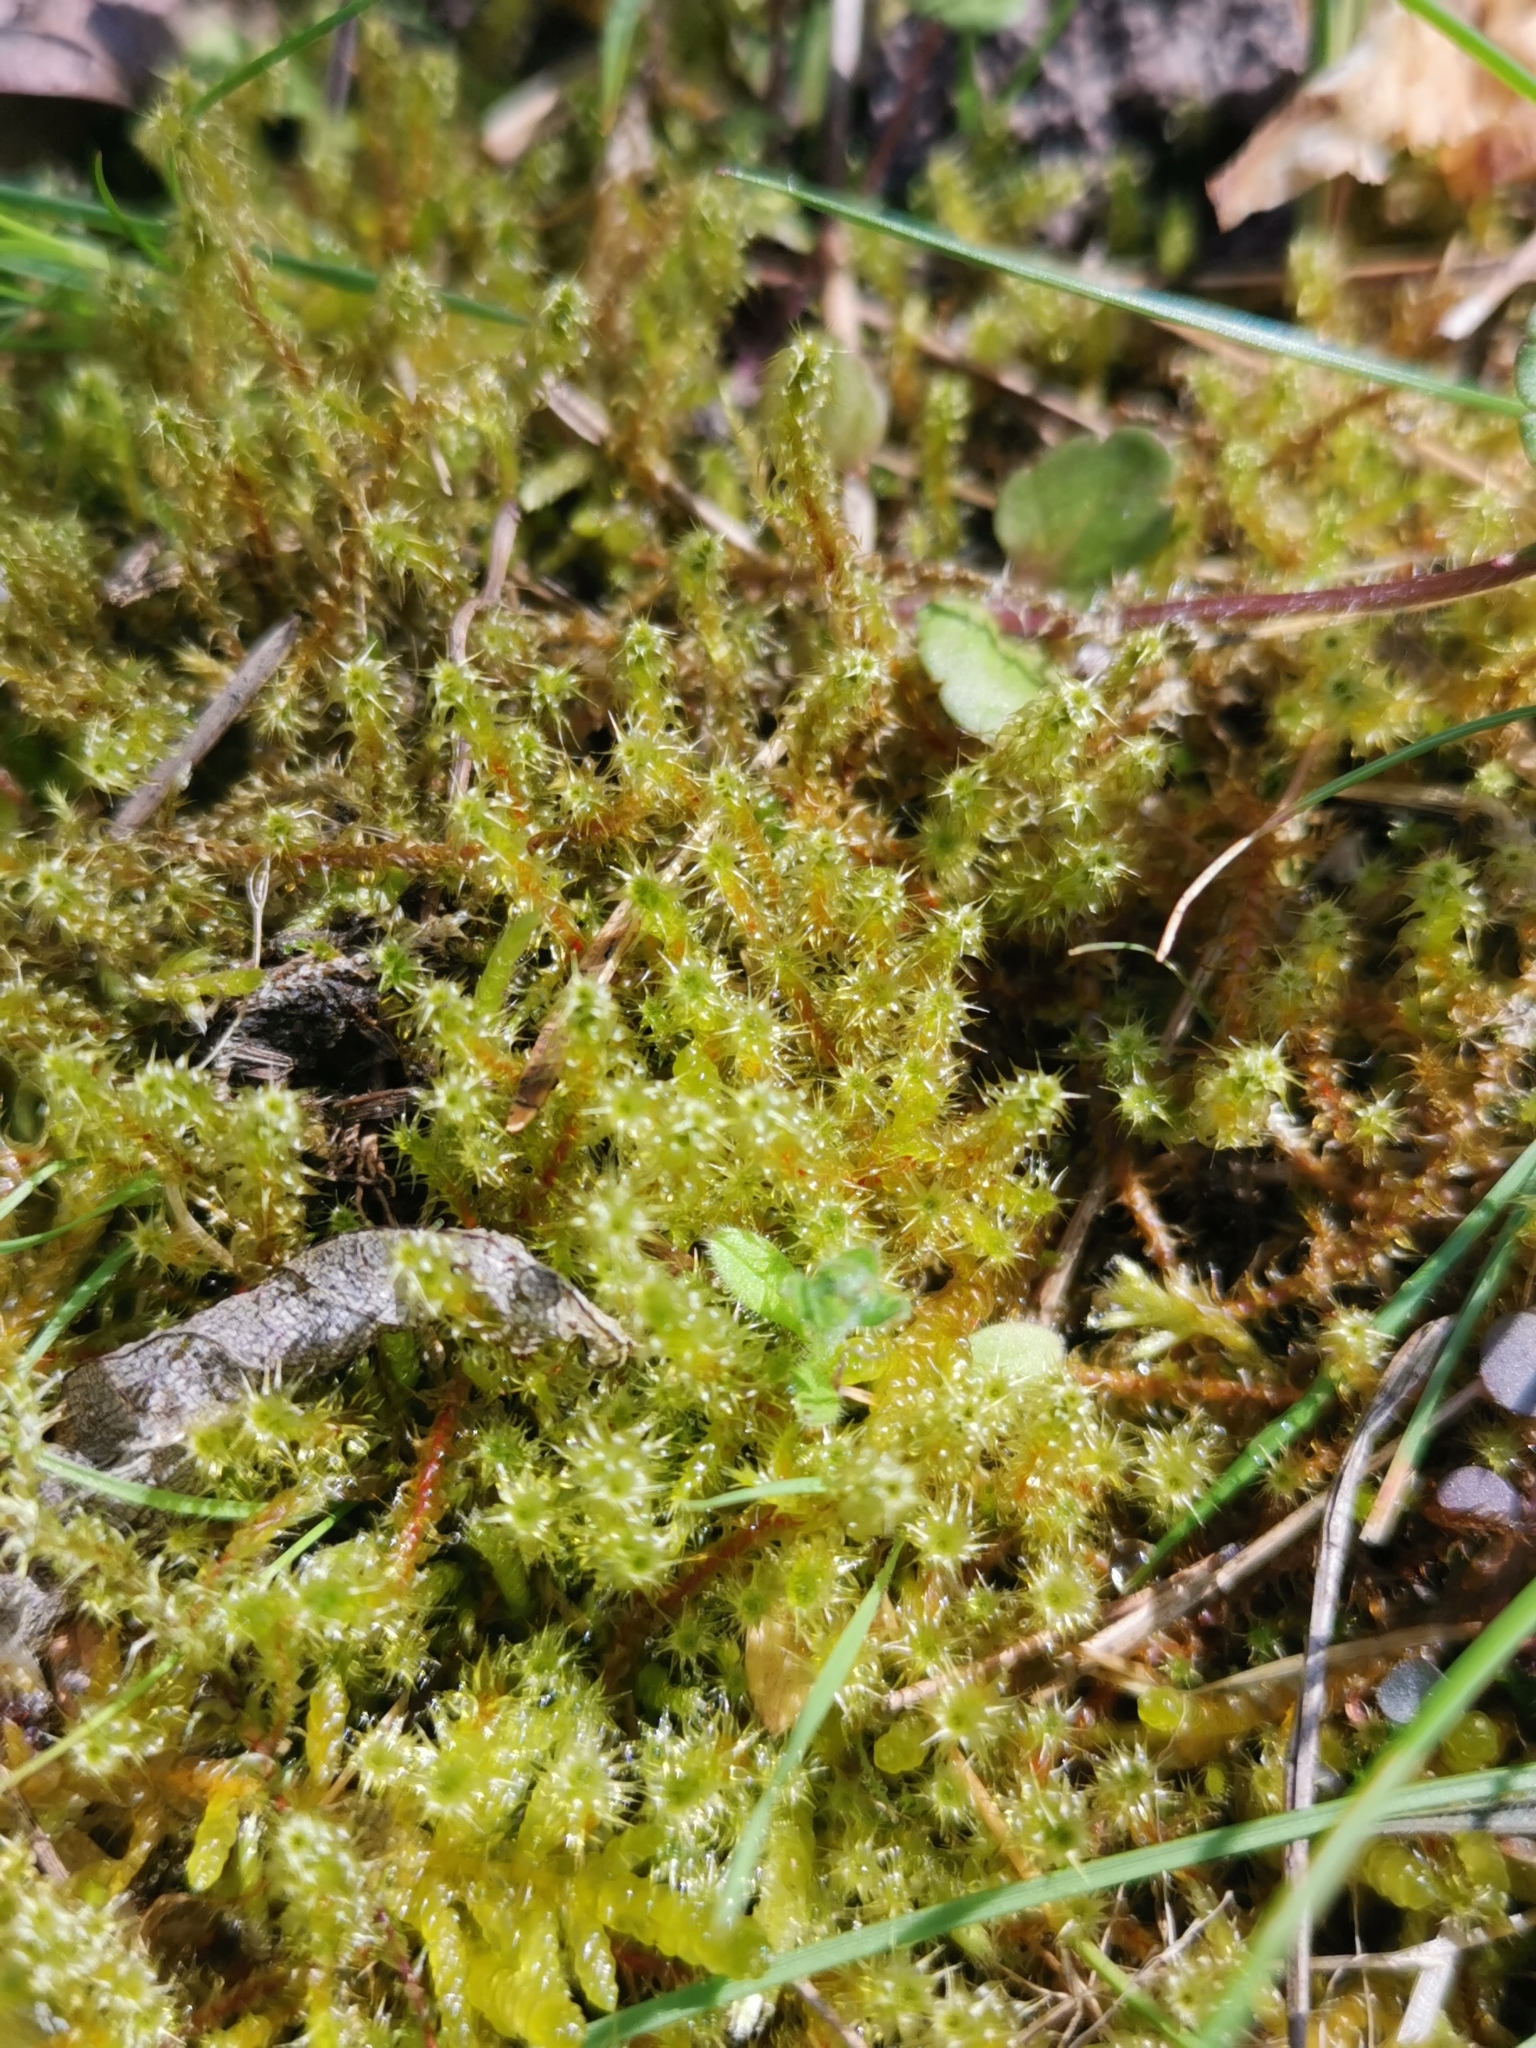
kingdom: Plantae
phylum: Bryophyta
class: Bryopsida
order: Hypnales
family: Hylocomiaceae
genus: Rhytidiadelphus
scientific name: Rhytidiadelphus squarrosus
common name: Springy turf-moss
